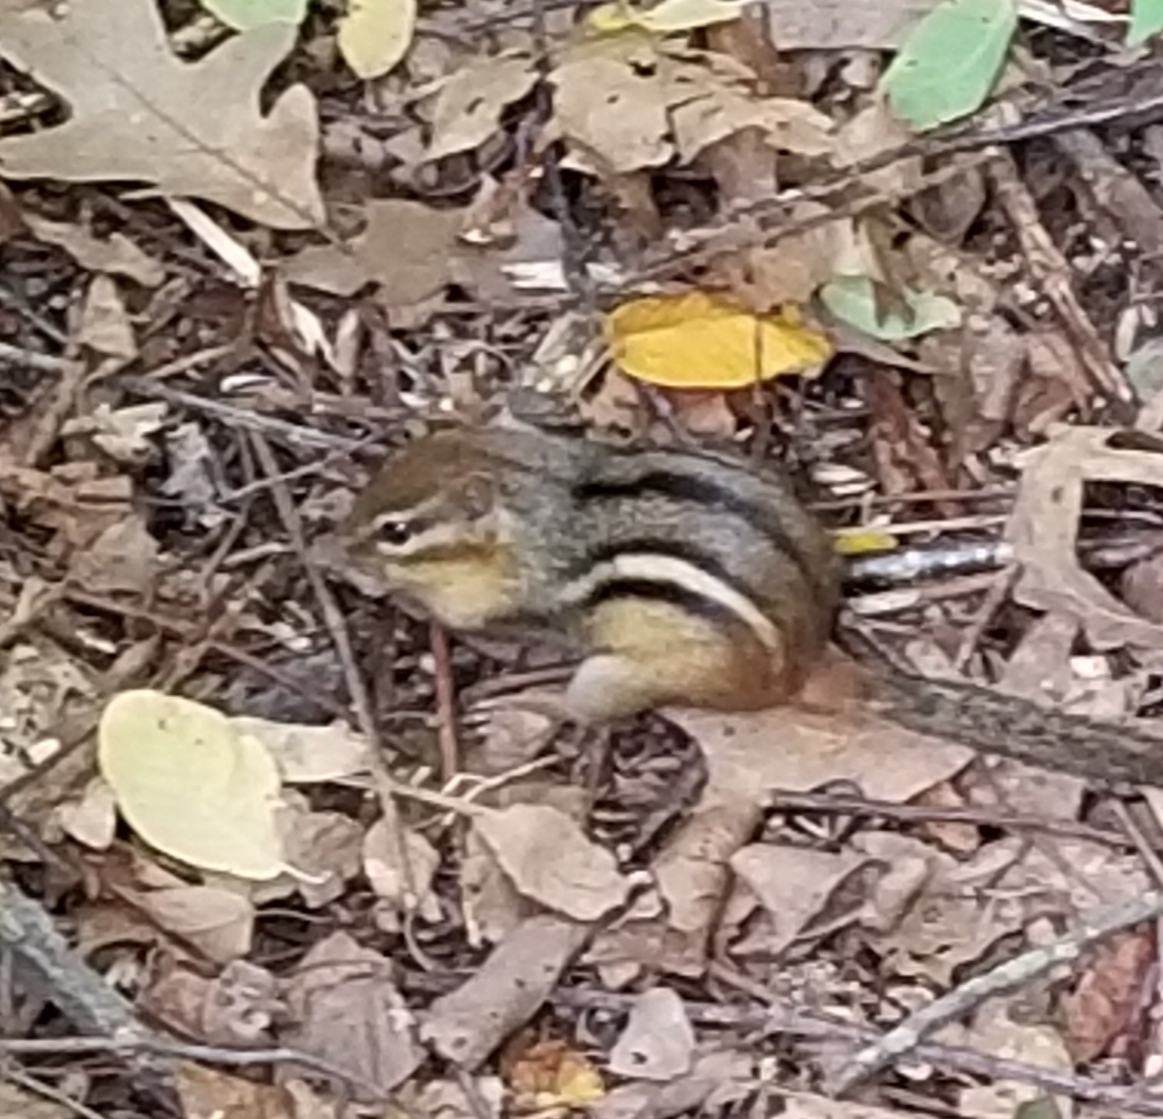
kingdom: Animalia
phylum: Chordata
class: Mammalia
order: Rodentia
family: Sciuridae
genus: Tamias
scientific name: Tamias striatus
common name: Eastern chipmunk
